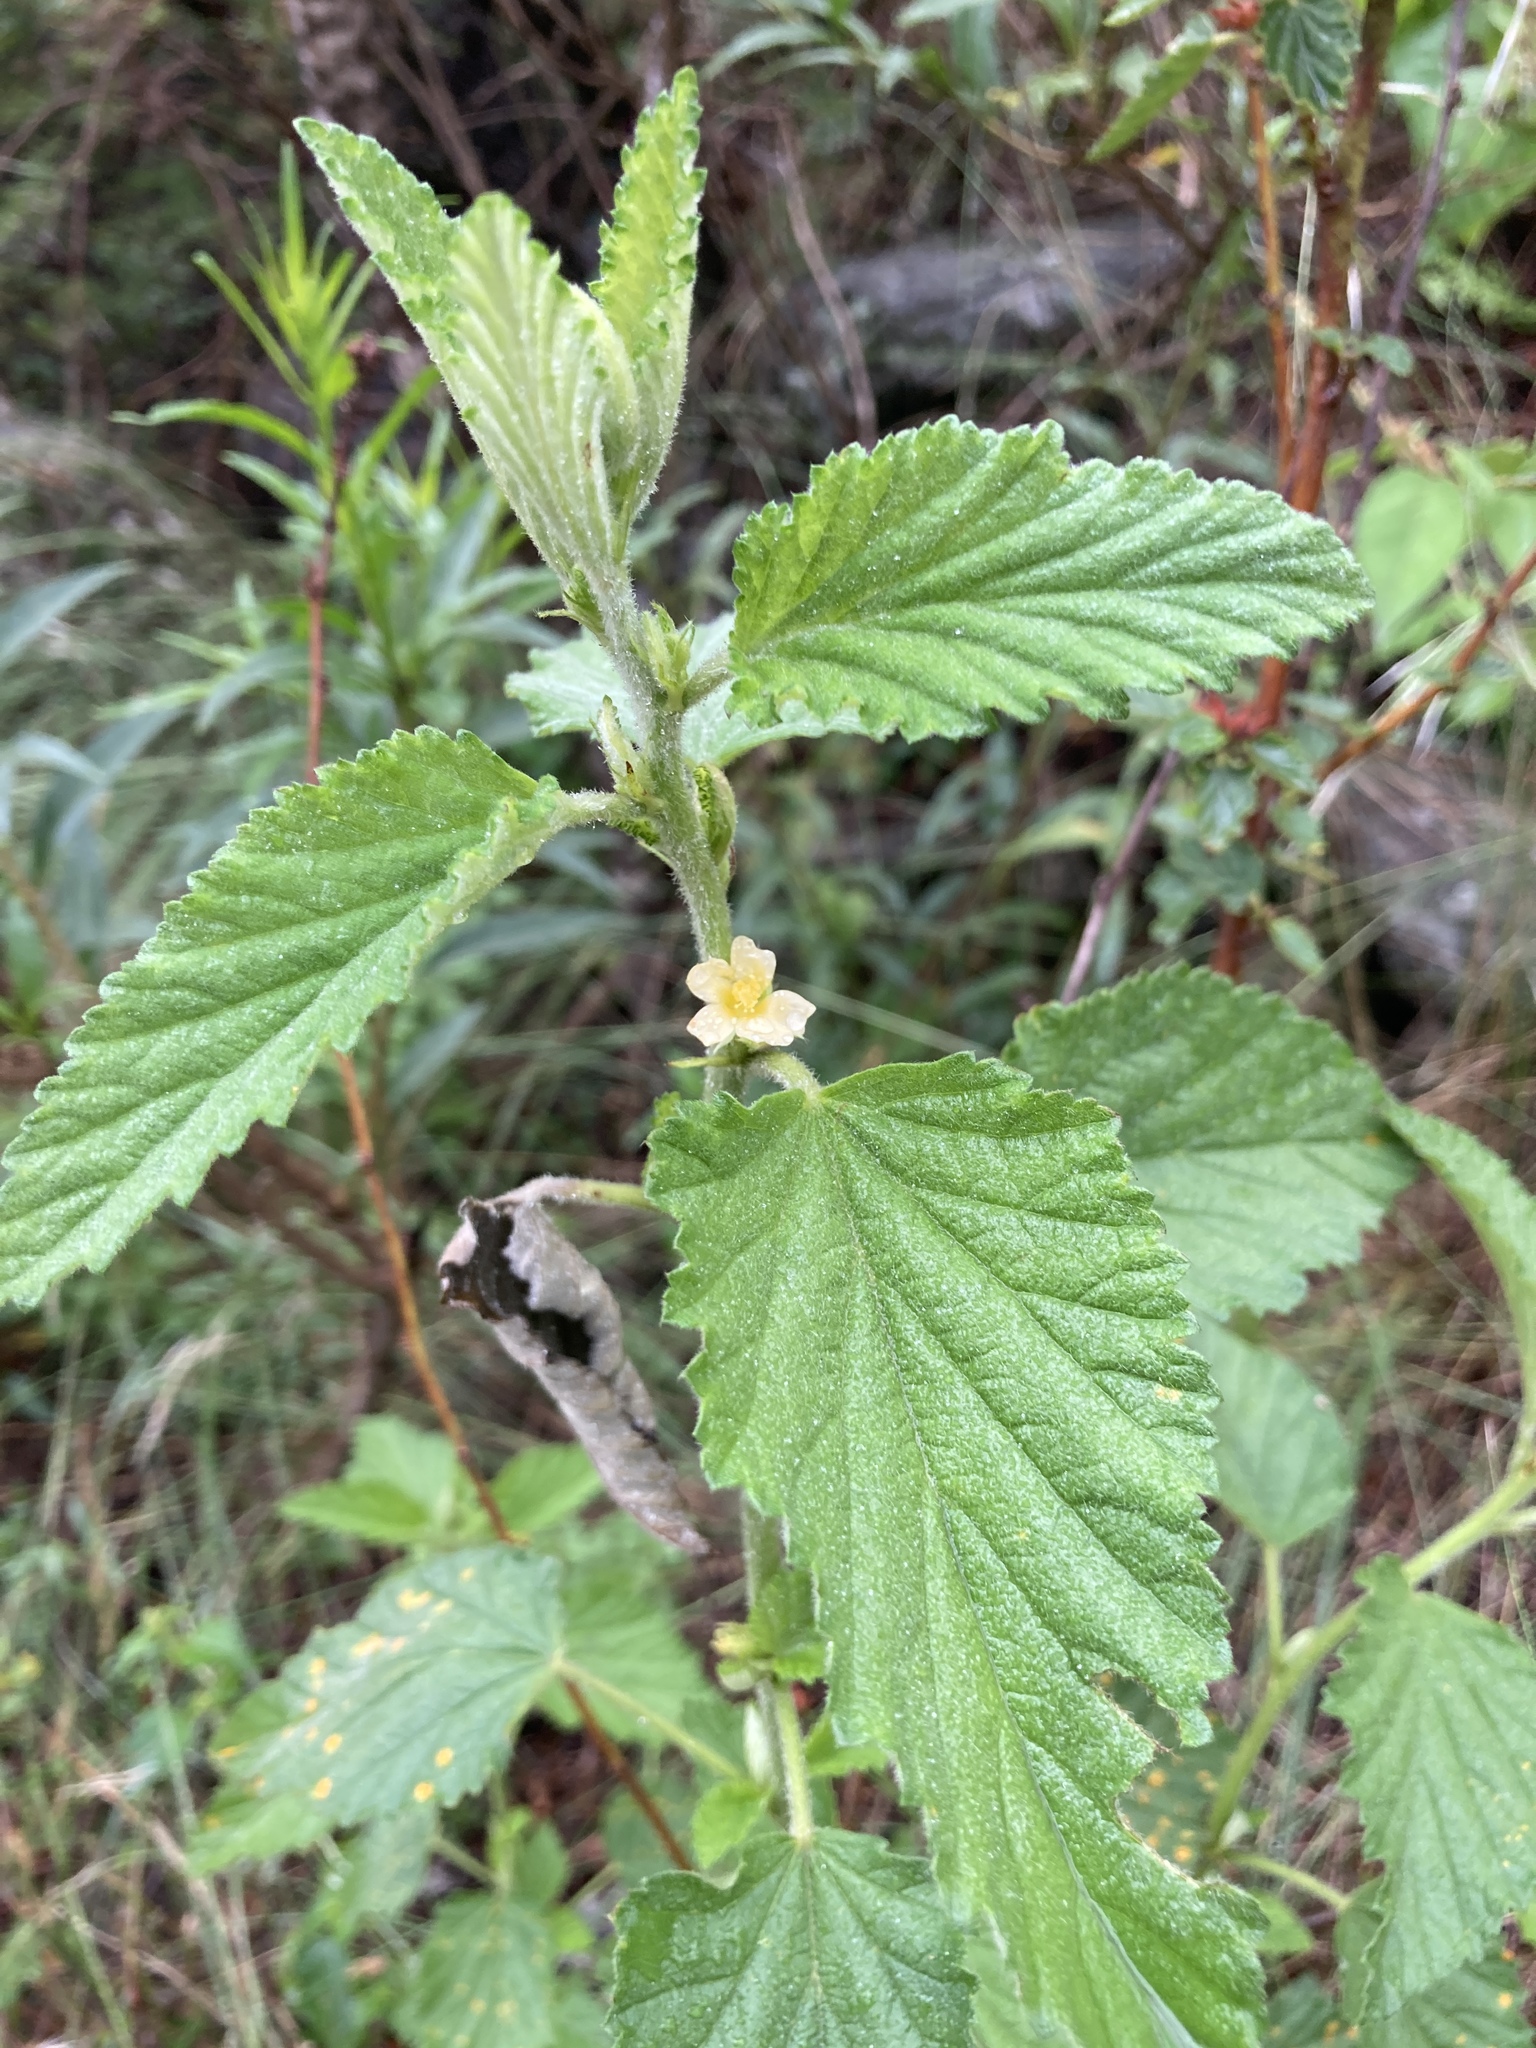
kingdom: Plantae
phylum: Tracheophyta
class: Magnoliopsida
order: Malvales
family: Malvaceae
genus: Malvastrum
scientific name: Malvastrum coromandelianum
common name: Threelobe false mallow
